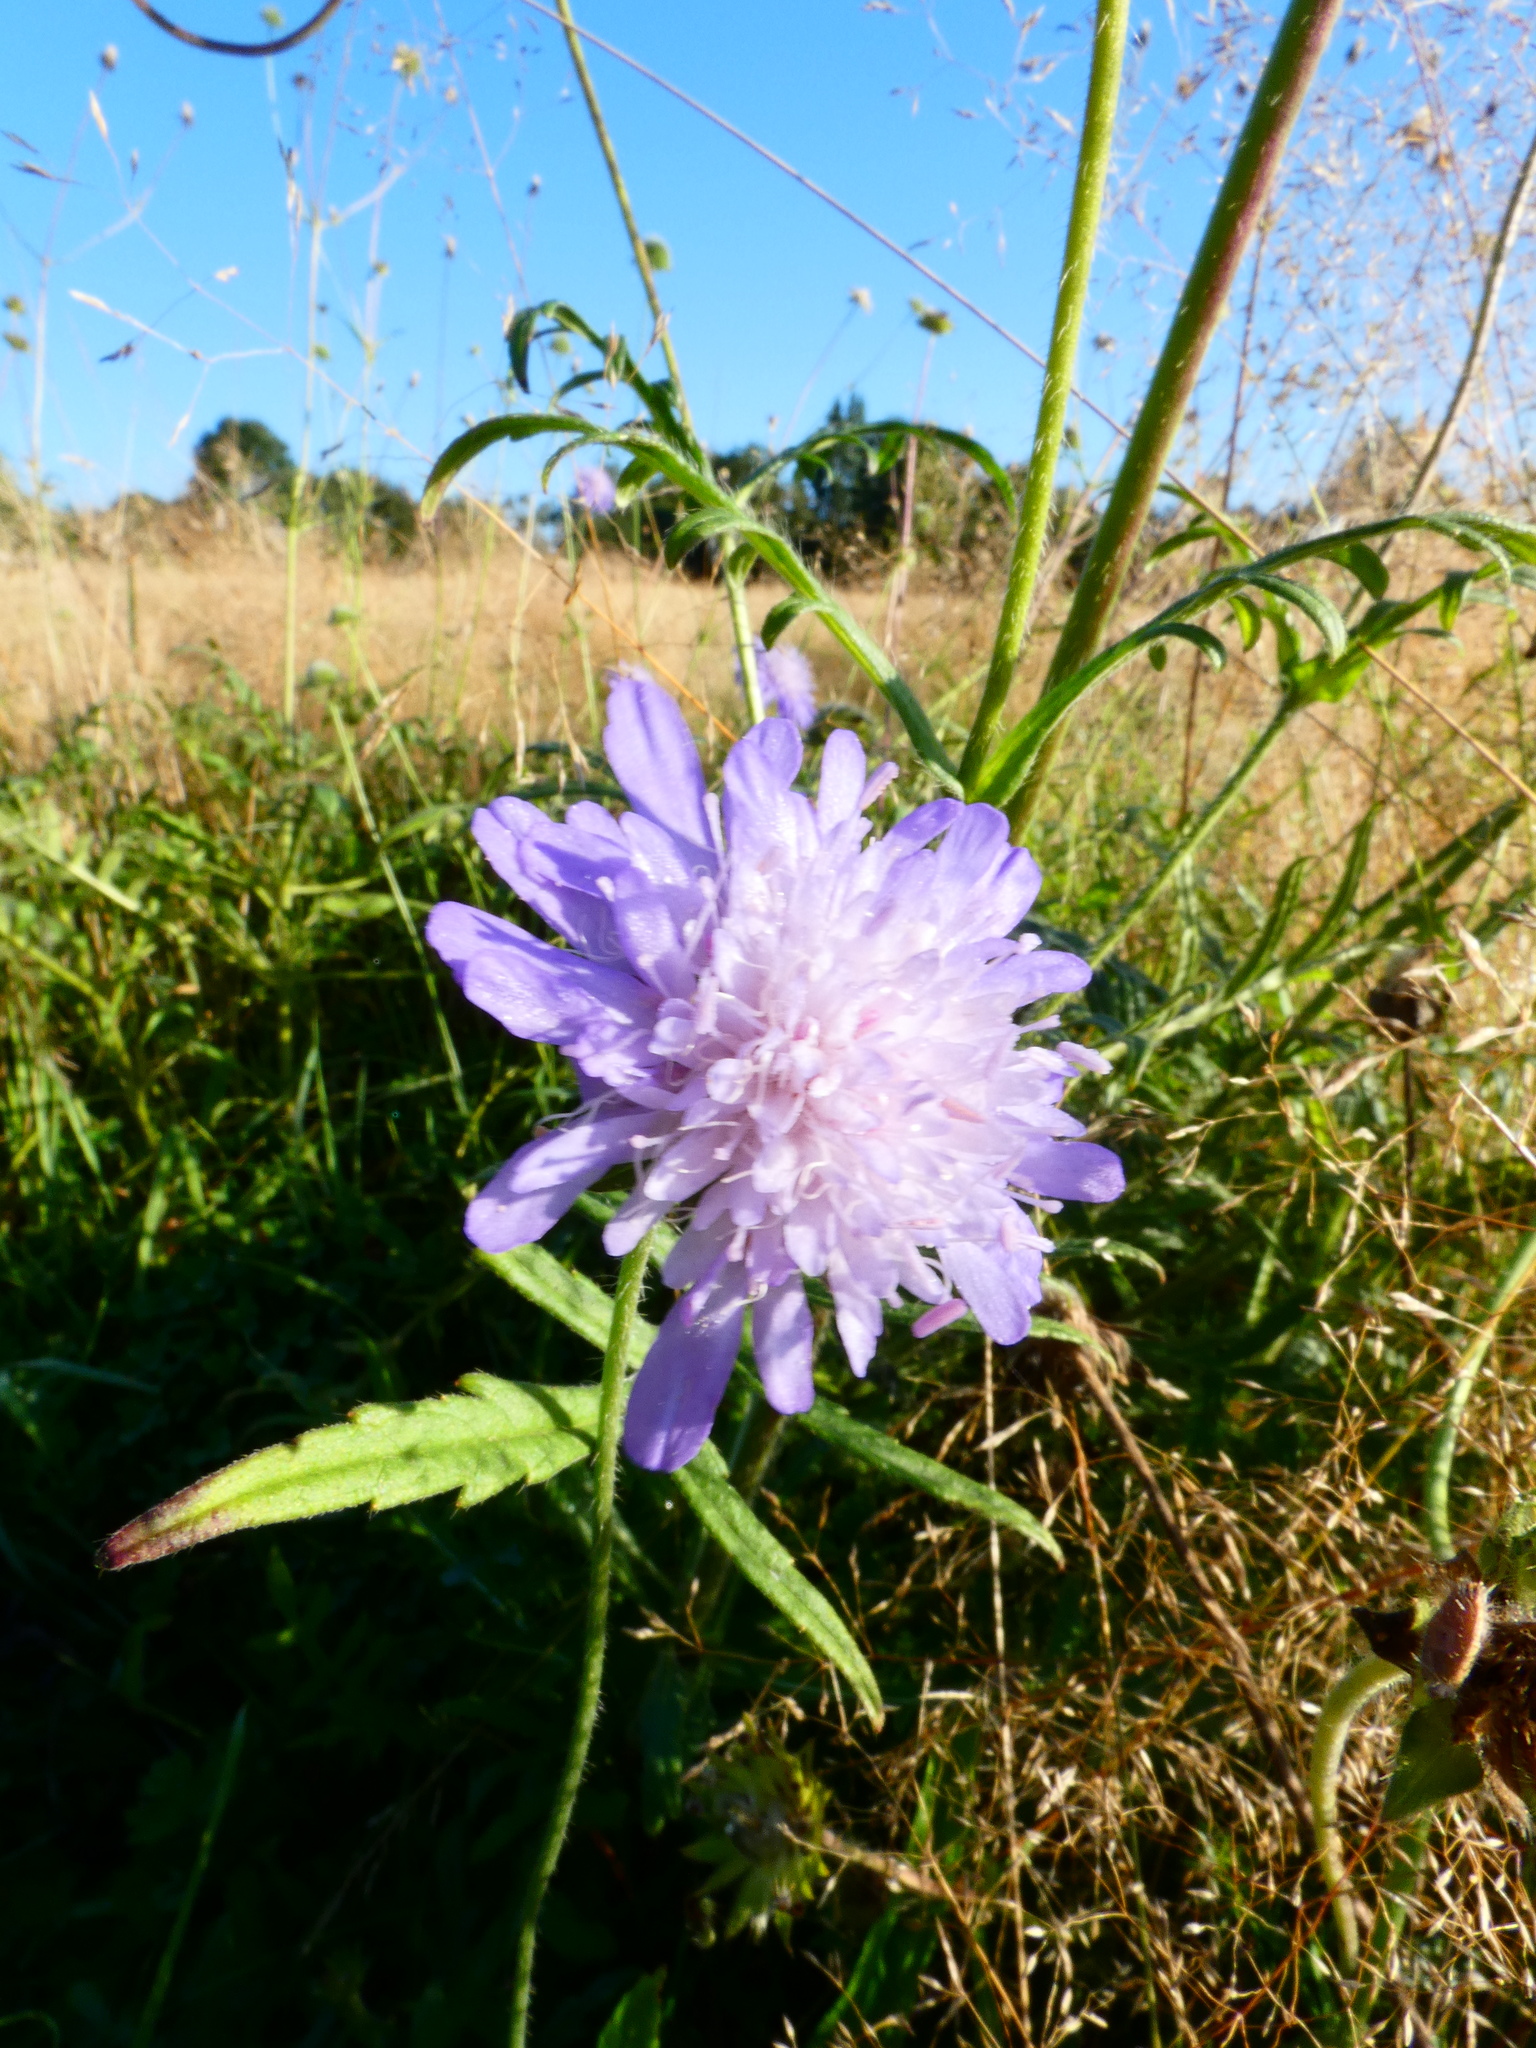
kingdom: Plantae
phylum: Tracheophyta
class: Magnoliopsida
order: Dipsacales
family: Caprifoliaceae
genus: Knautia
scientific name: Knautia arvensis
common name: Field scabiosa
